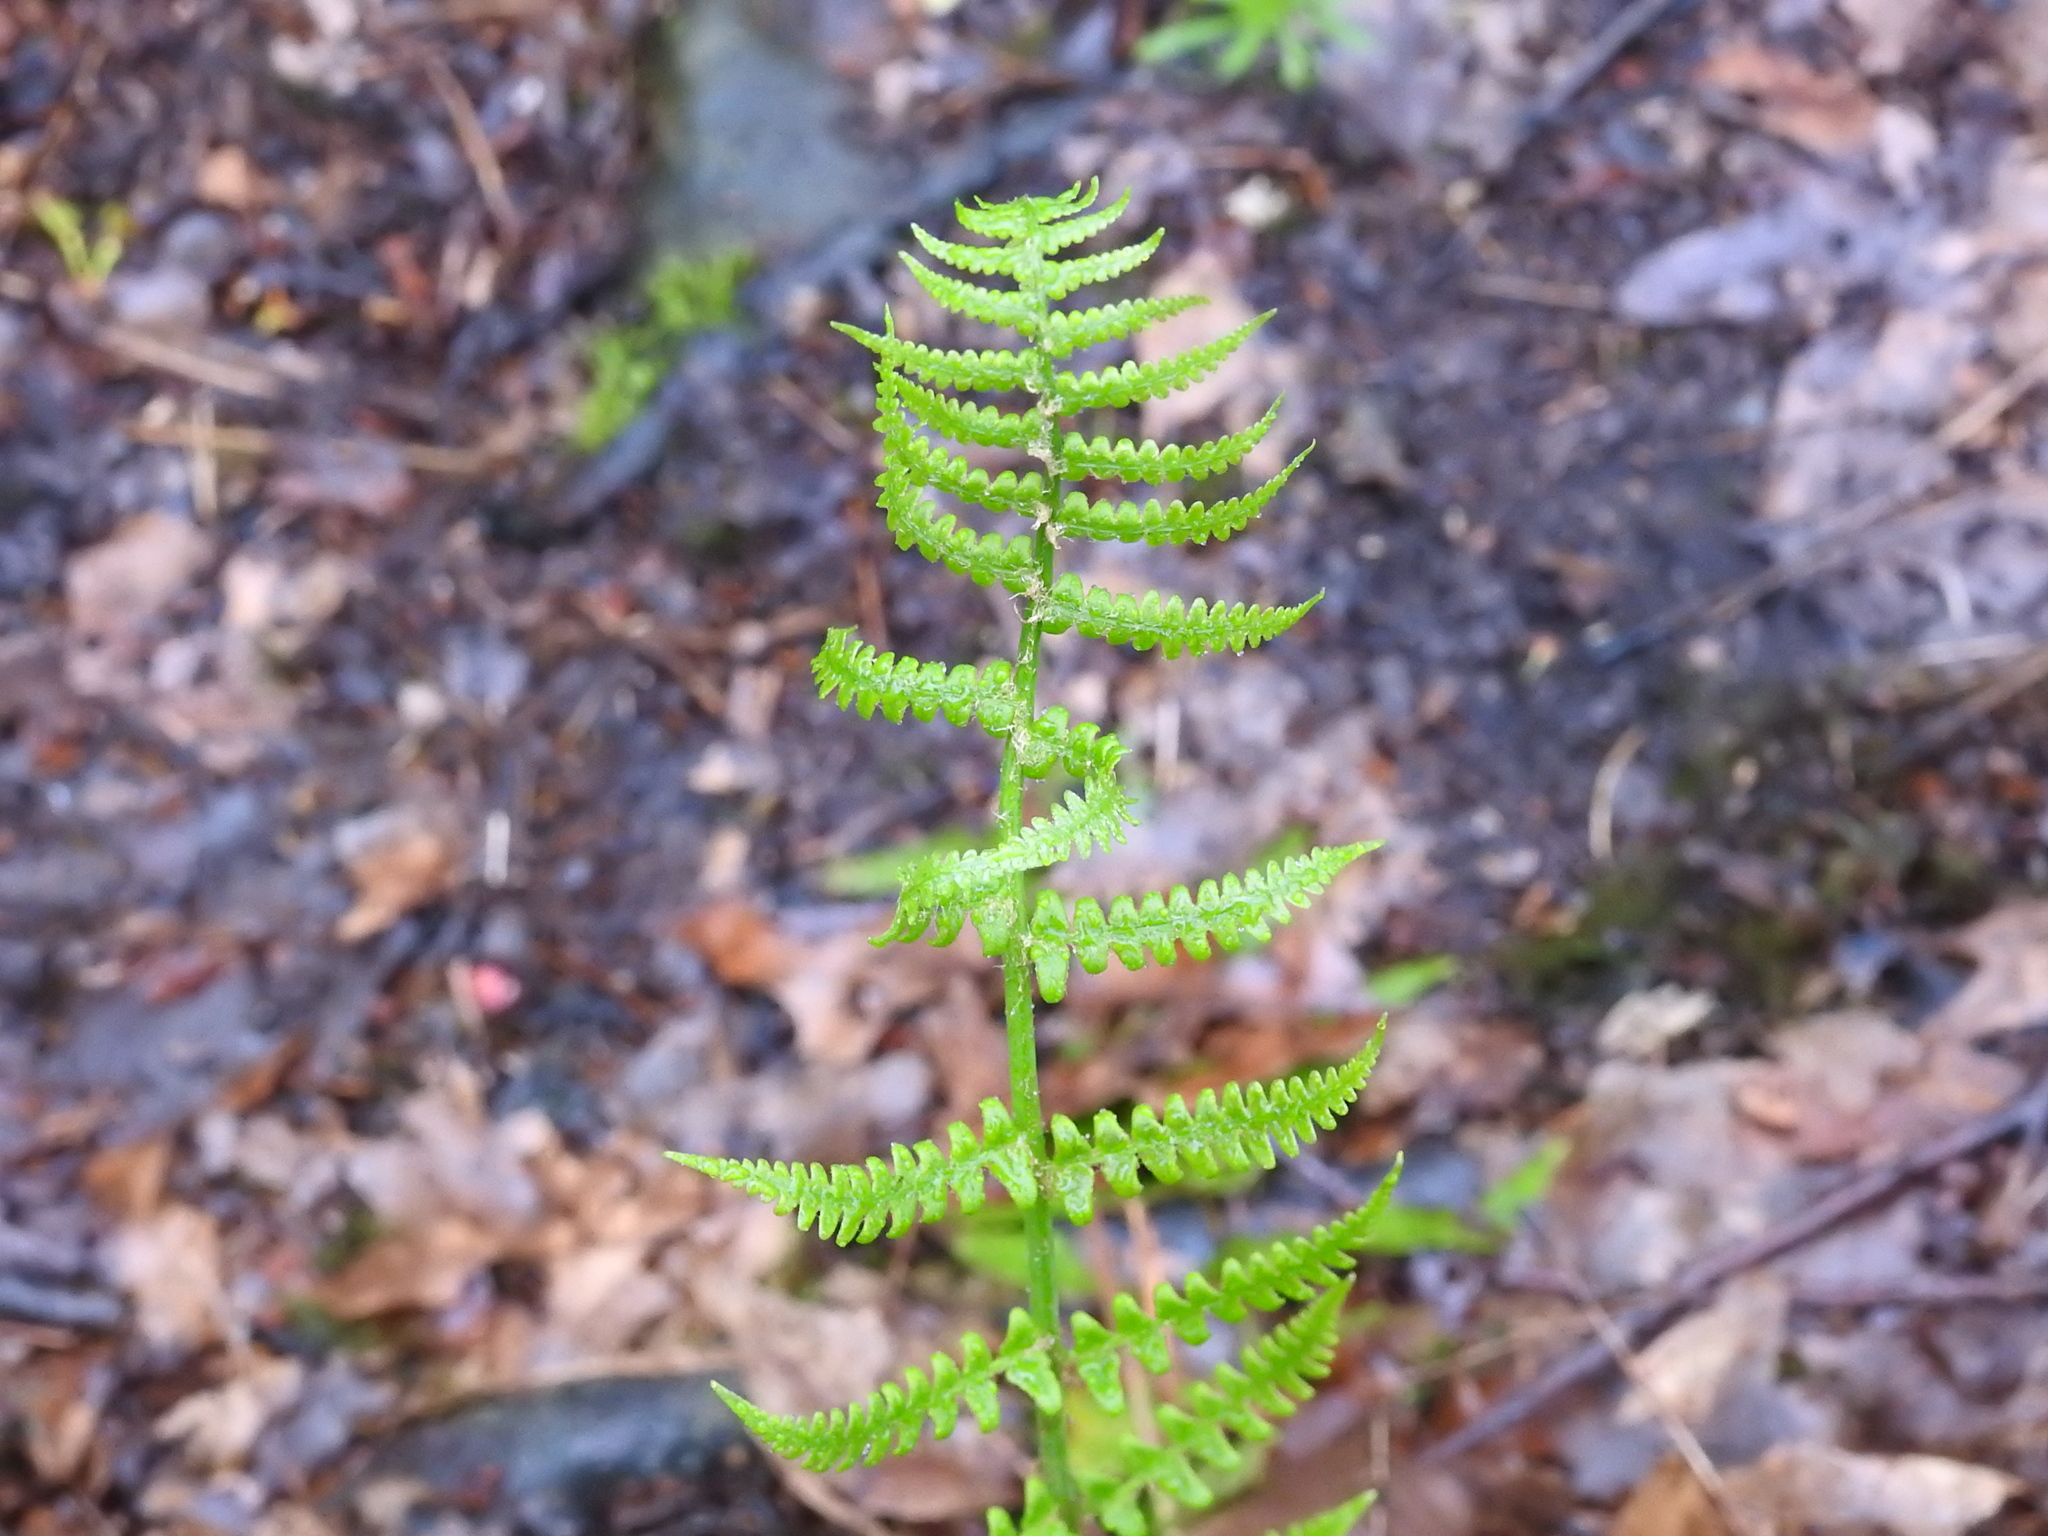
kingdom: Plantae
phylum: Tracheophyta
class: Polypodiopsida
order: Polypodiales
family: Dryopteridaceae
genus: Dryopteris
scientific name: Dryopteris marginalis
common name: Marginal wood fern
